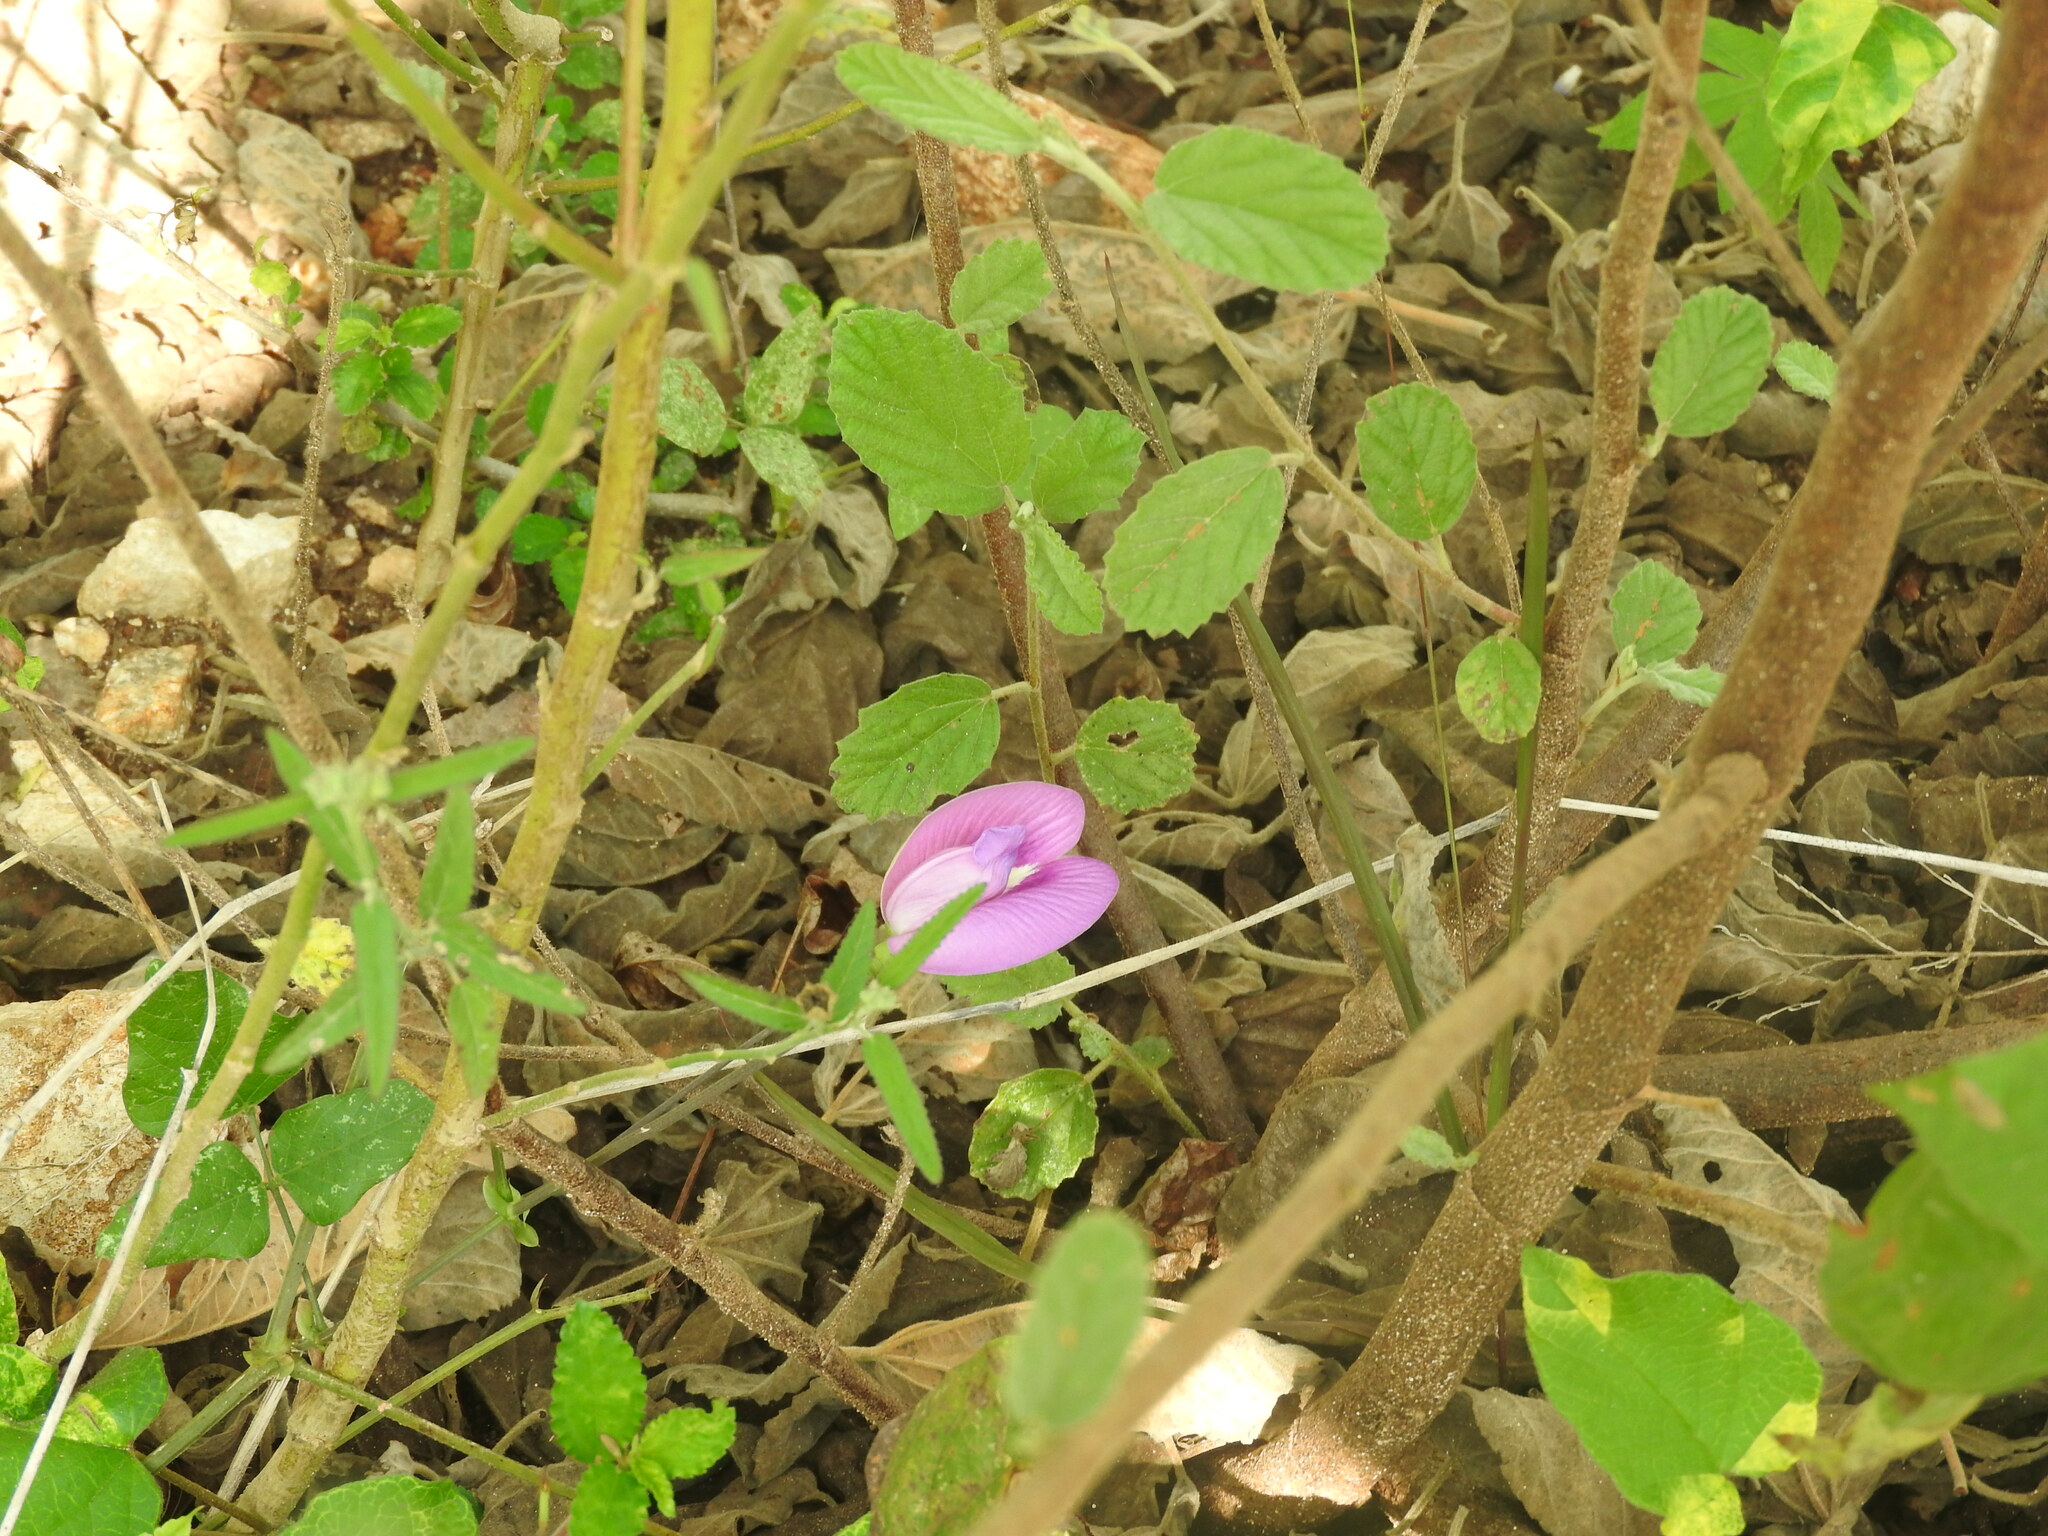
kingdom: Plantae
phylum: Tracheophyta
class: Magnoliopsida
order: Fabales
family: Fabaceae
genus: Centrosema
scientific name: Centrosema virginianum
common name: Butterfly-pea
